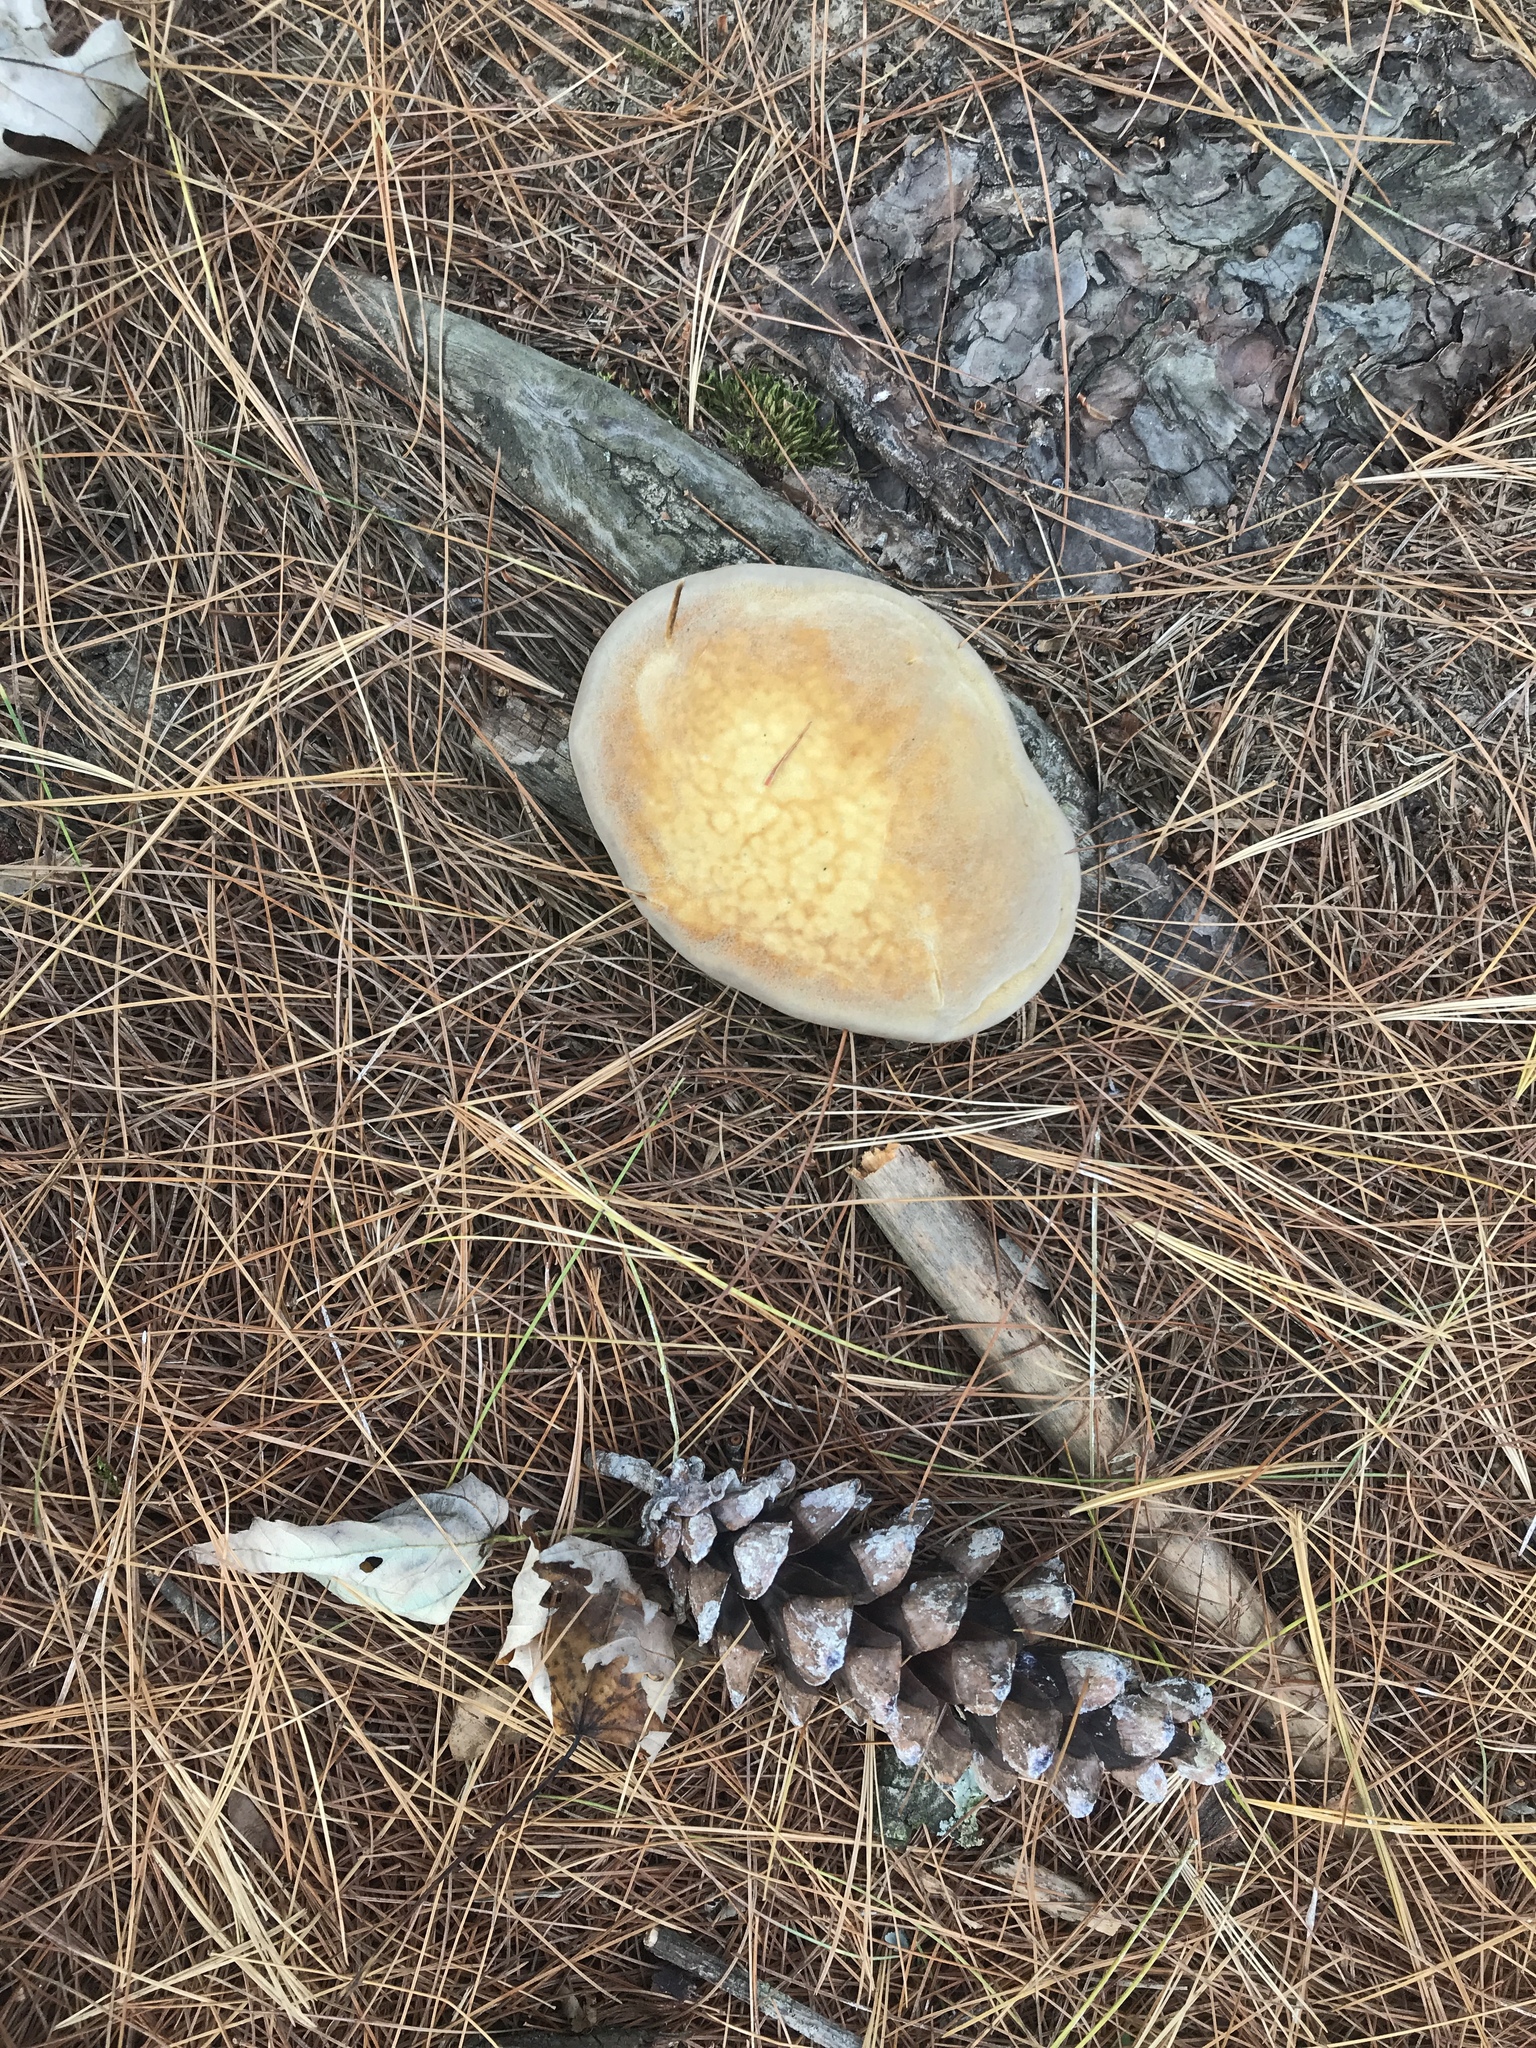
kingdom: Fungi
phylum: Basidiomycota
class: Agaricomycetes
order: Hymenochaetales
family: Hymenochaetaceae
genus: Onnia
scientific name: Onnia triquetra
